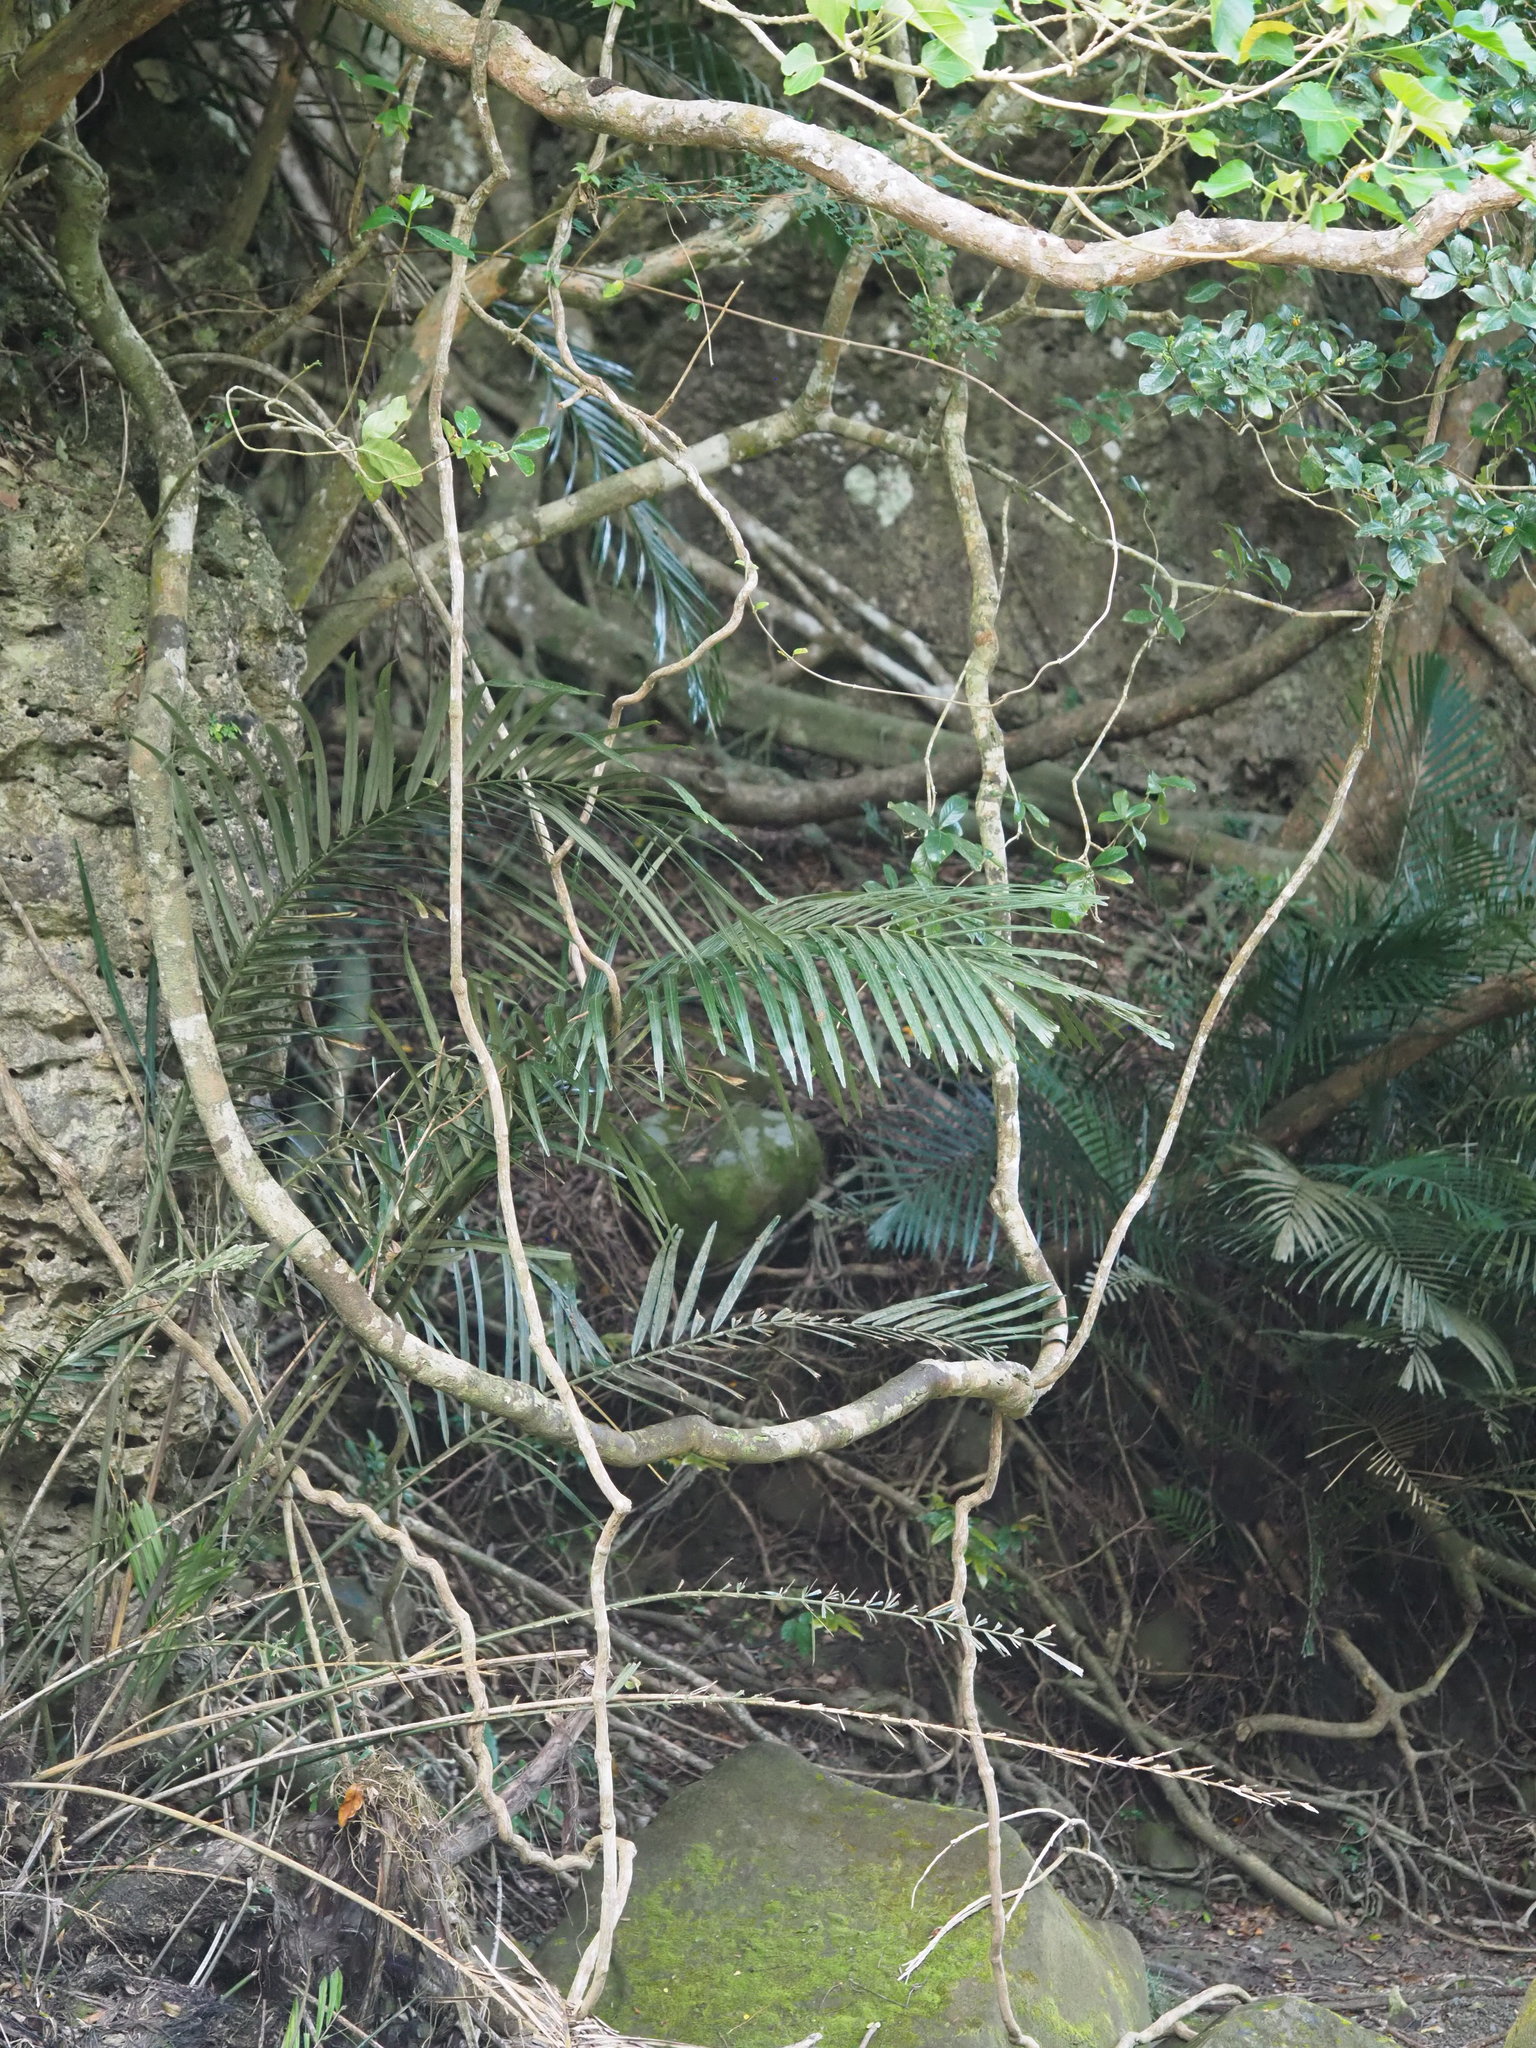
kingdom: Plantae
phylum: Tracheophyta
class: Liliopsida
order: Arecales
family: Arecaceae
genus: Arenga
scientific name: Arenga engleri
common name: Formosan sugar palm
